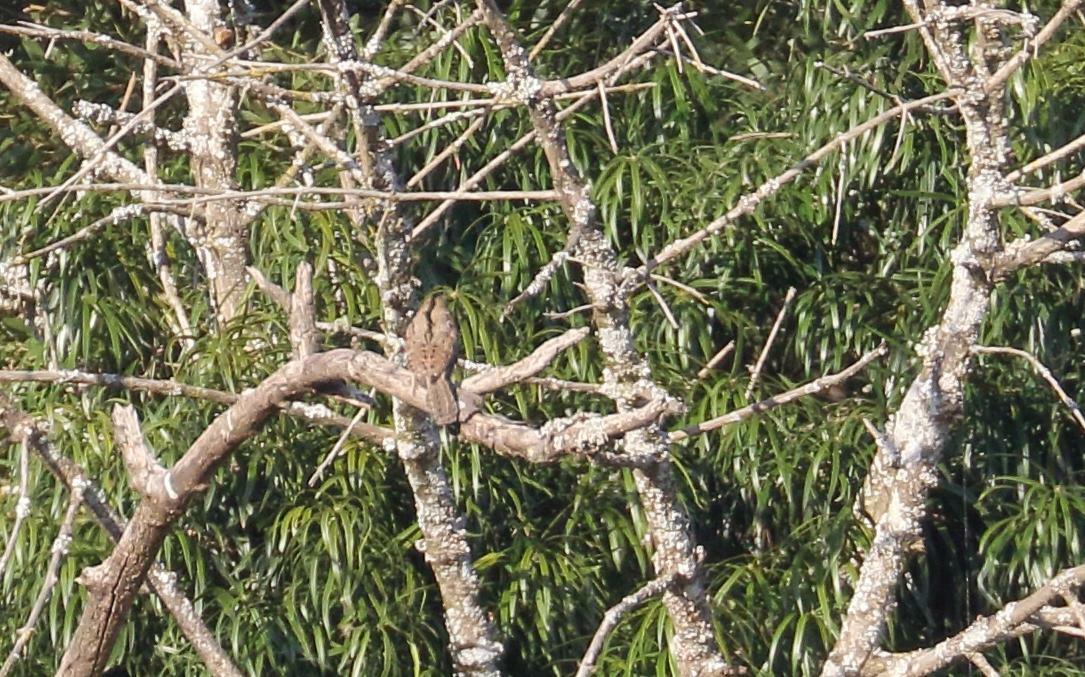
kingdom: Animalia
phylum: Chordata
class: Aves
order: Piciformes
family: Picidae
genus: Jynx
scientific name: Jynx ruficollis
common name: Red-throated wryneck
